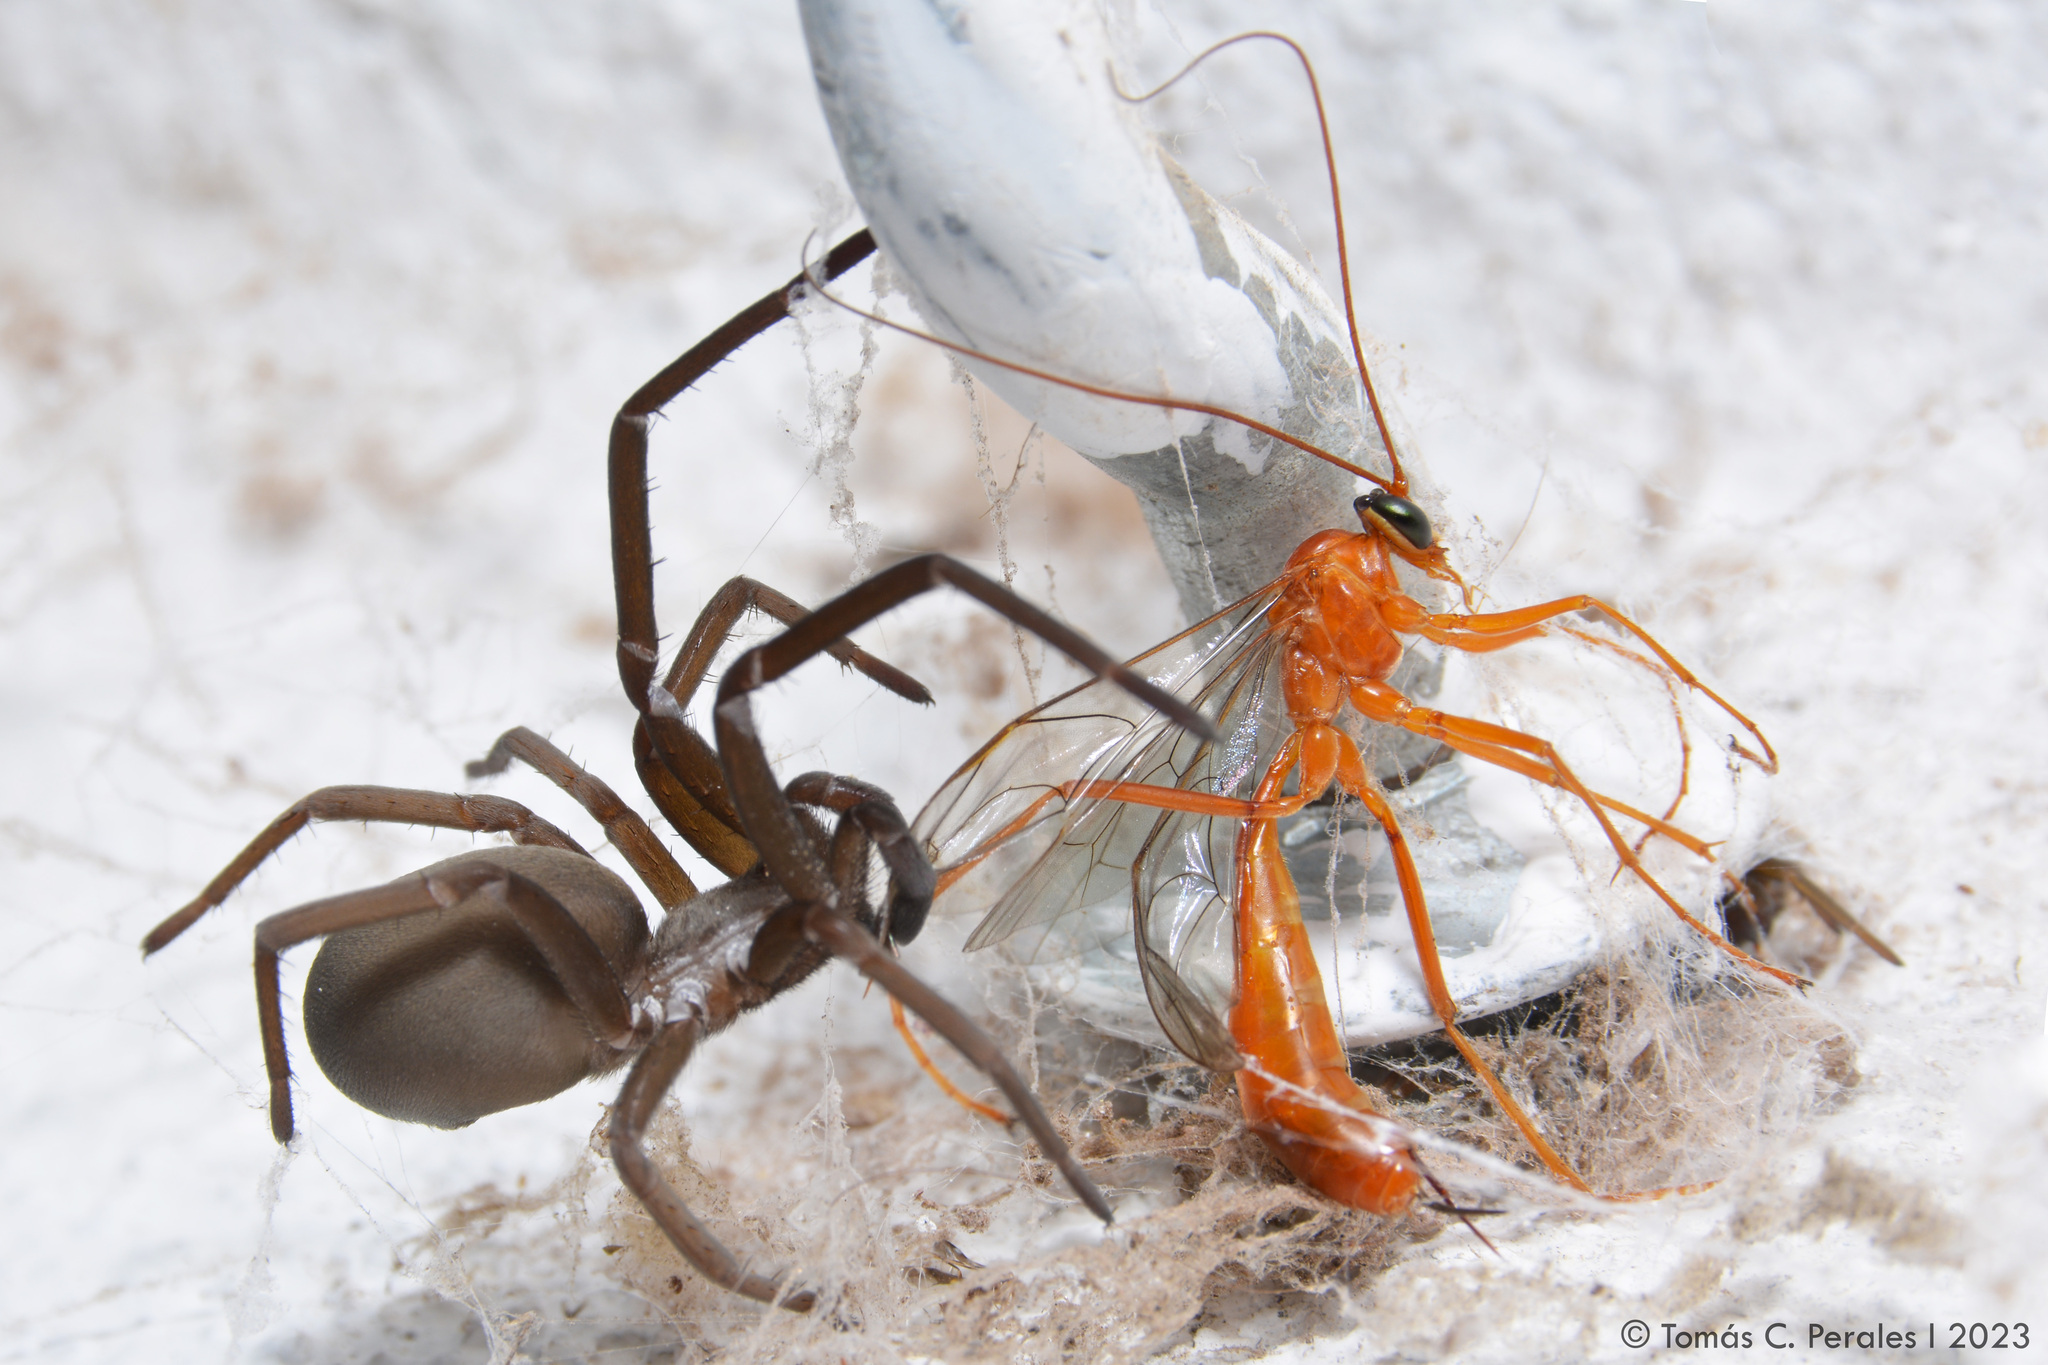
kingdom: Animalia
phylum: Arthropoda
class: Arachnida
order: Araneae
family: Filistatidae
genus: Kukulcania
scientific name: Kukulcania hibernalis
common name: Crevice weaver
